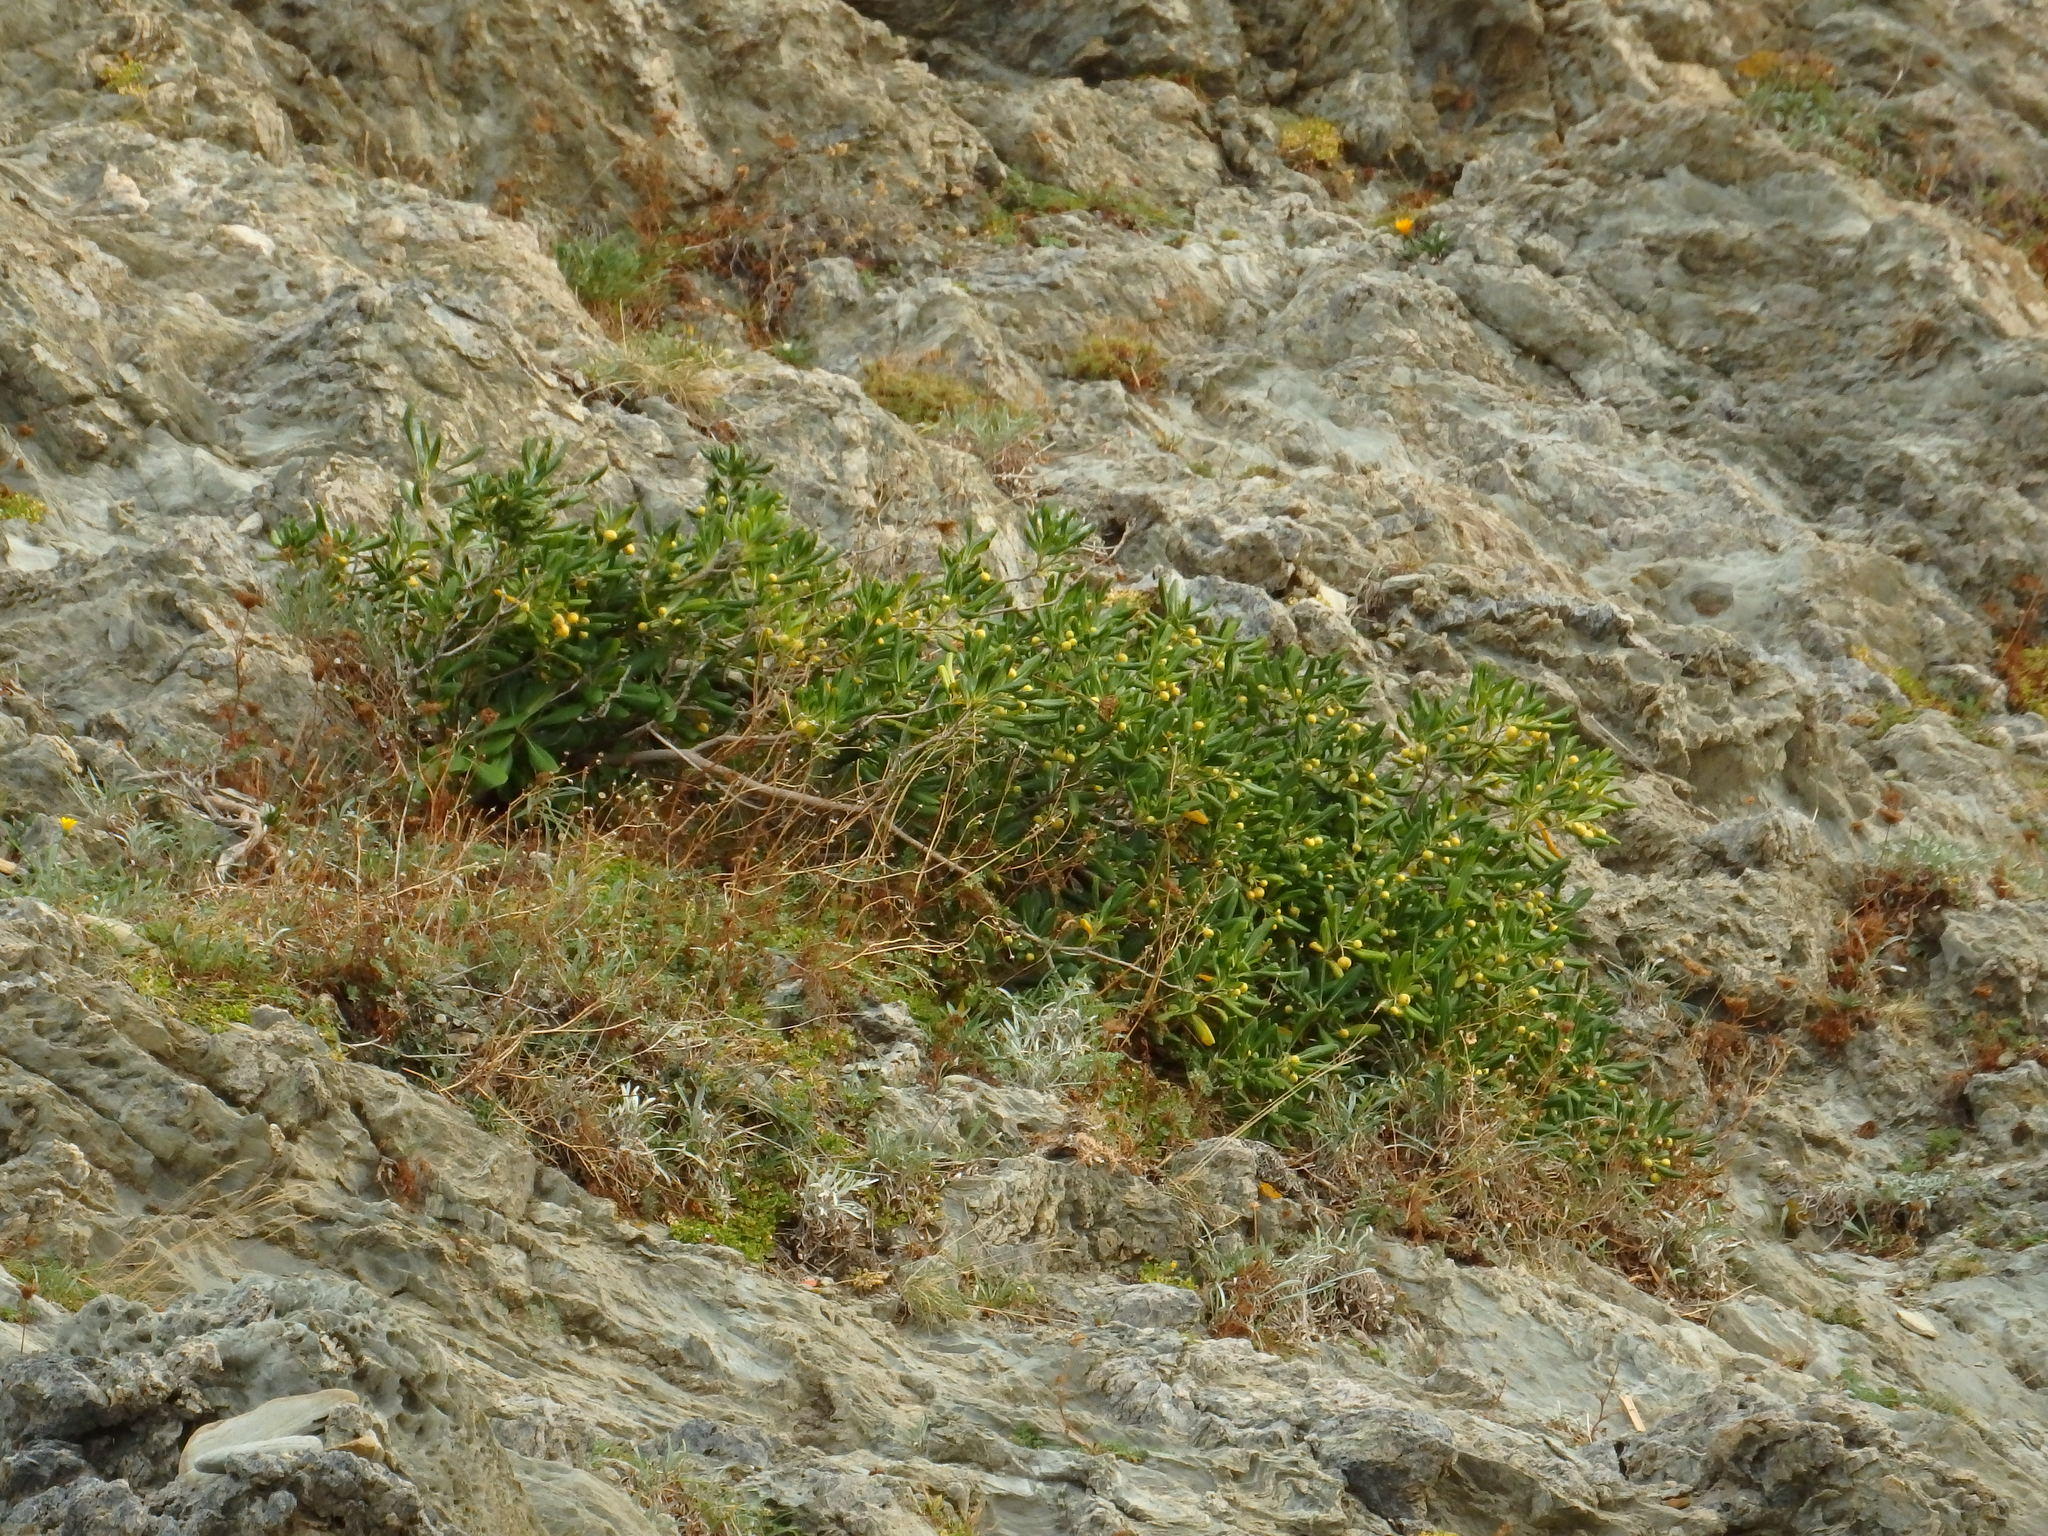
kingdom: Plantae
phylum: Tracheophyta
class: Magnoliopsida
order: Apiales
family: Pittosporaceae
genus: Pittosporum
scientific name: Pittosporum tobira
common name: Japanese cheesewood
